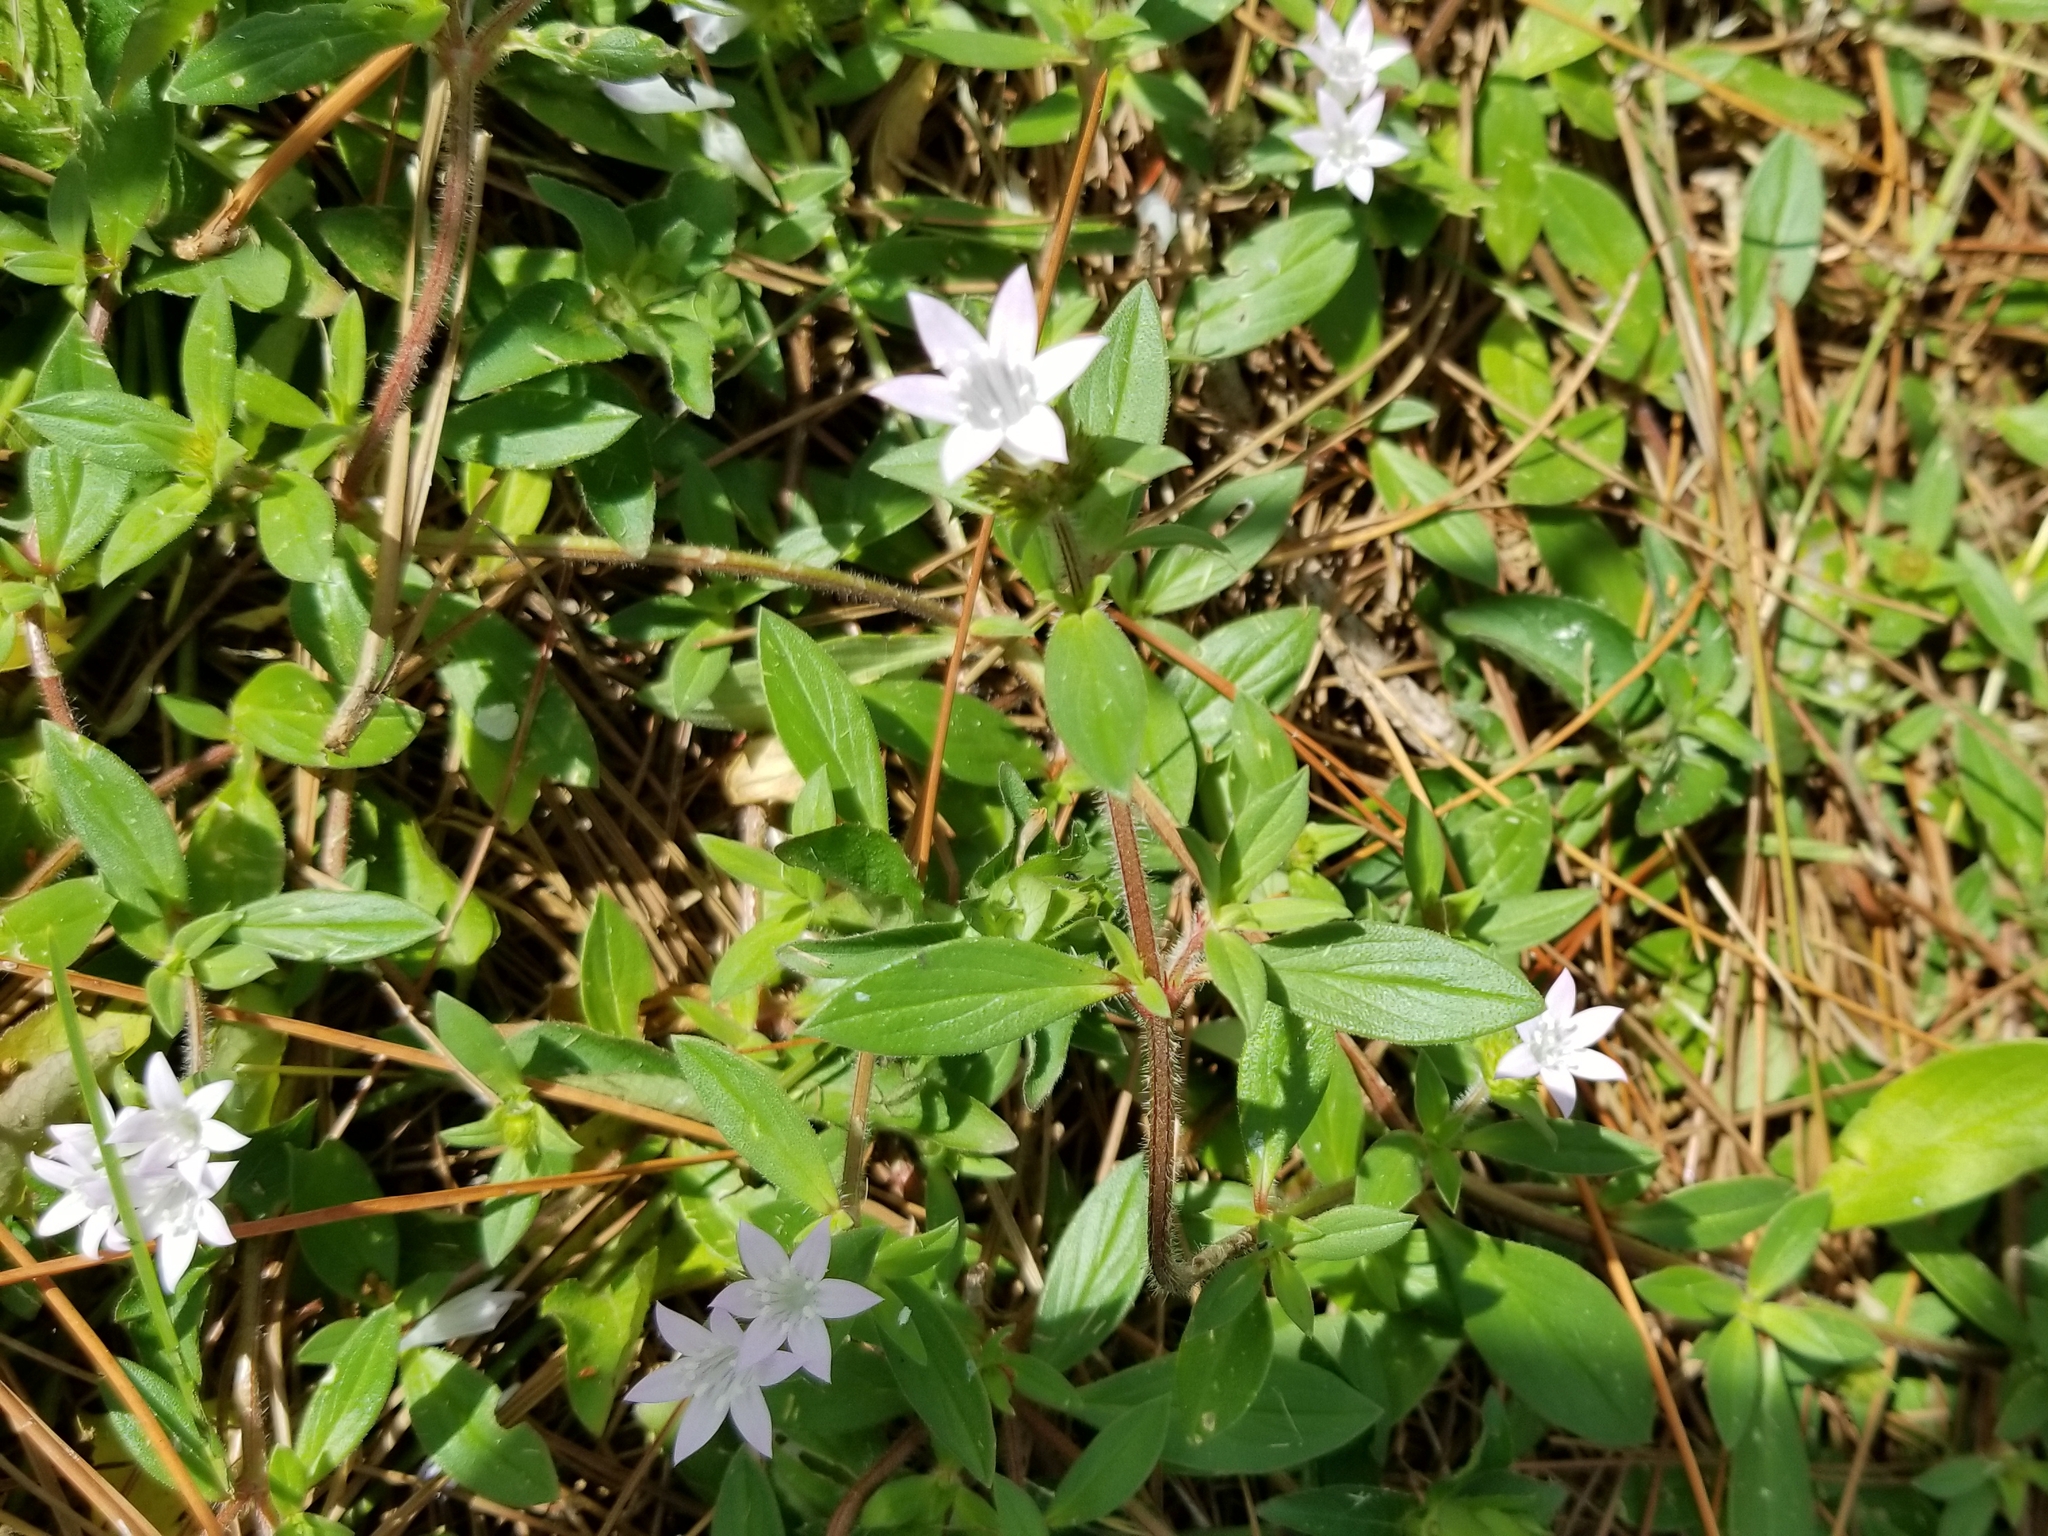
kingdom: Plantae
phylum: Tracheophyta
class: Magnoliopsida
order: Gentianales
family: Rubiaceae
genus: Richardia
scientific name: Richardia grandiflora
